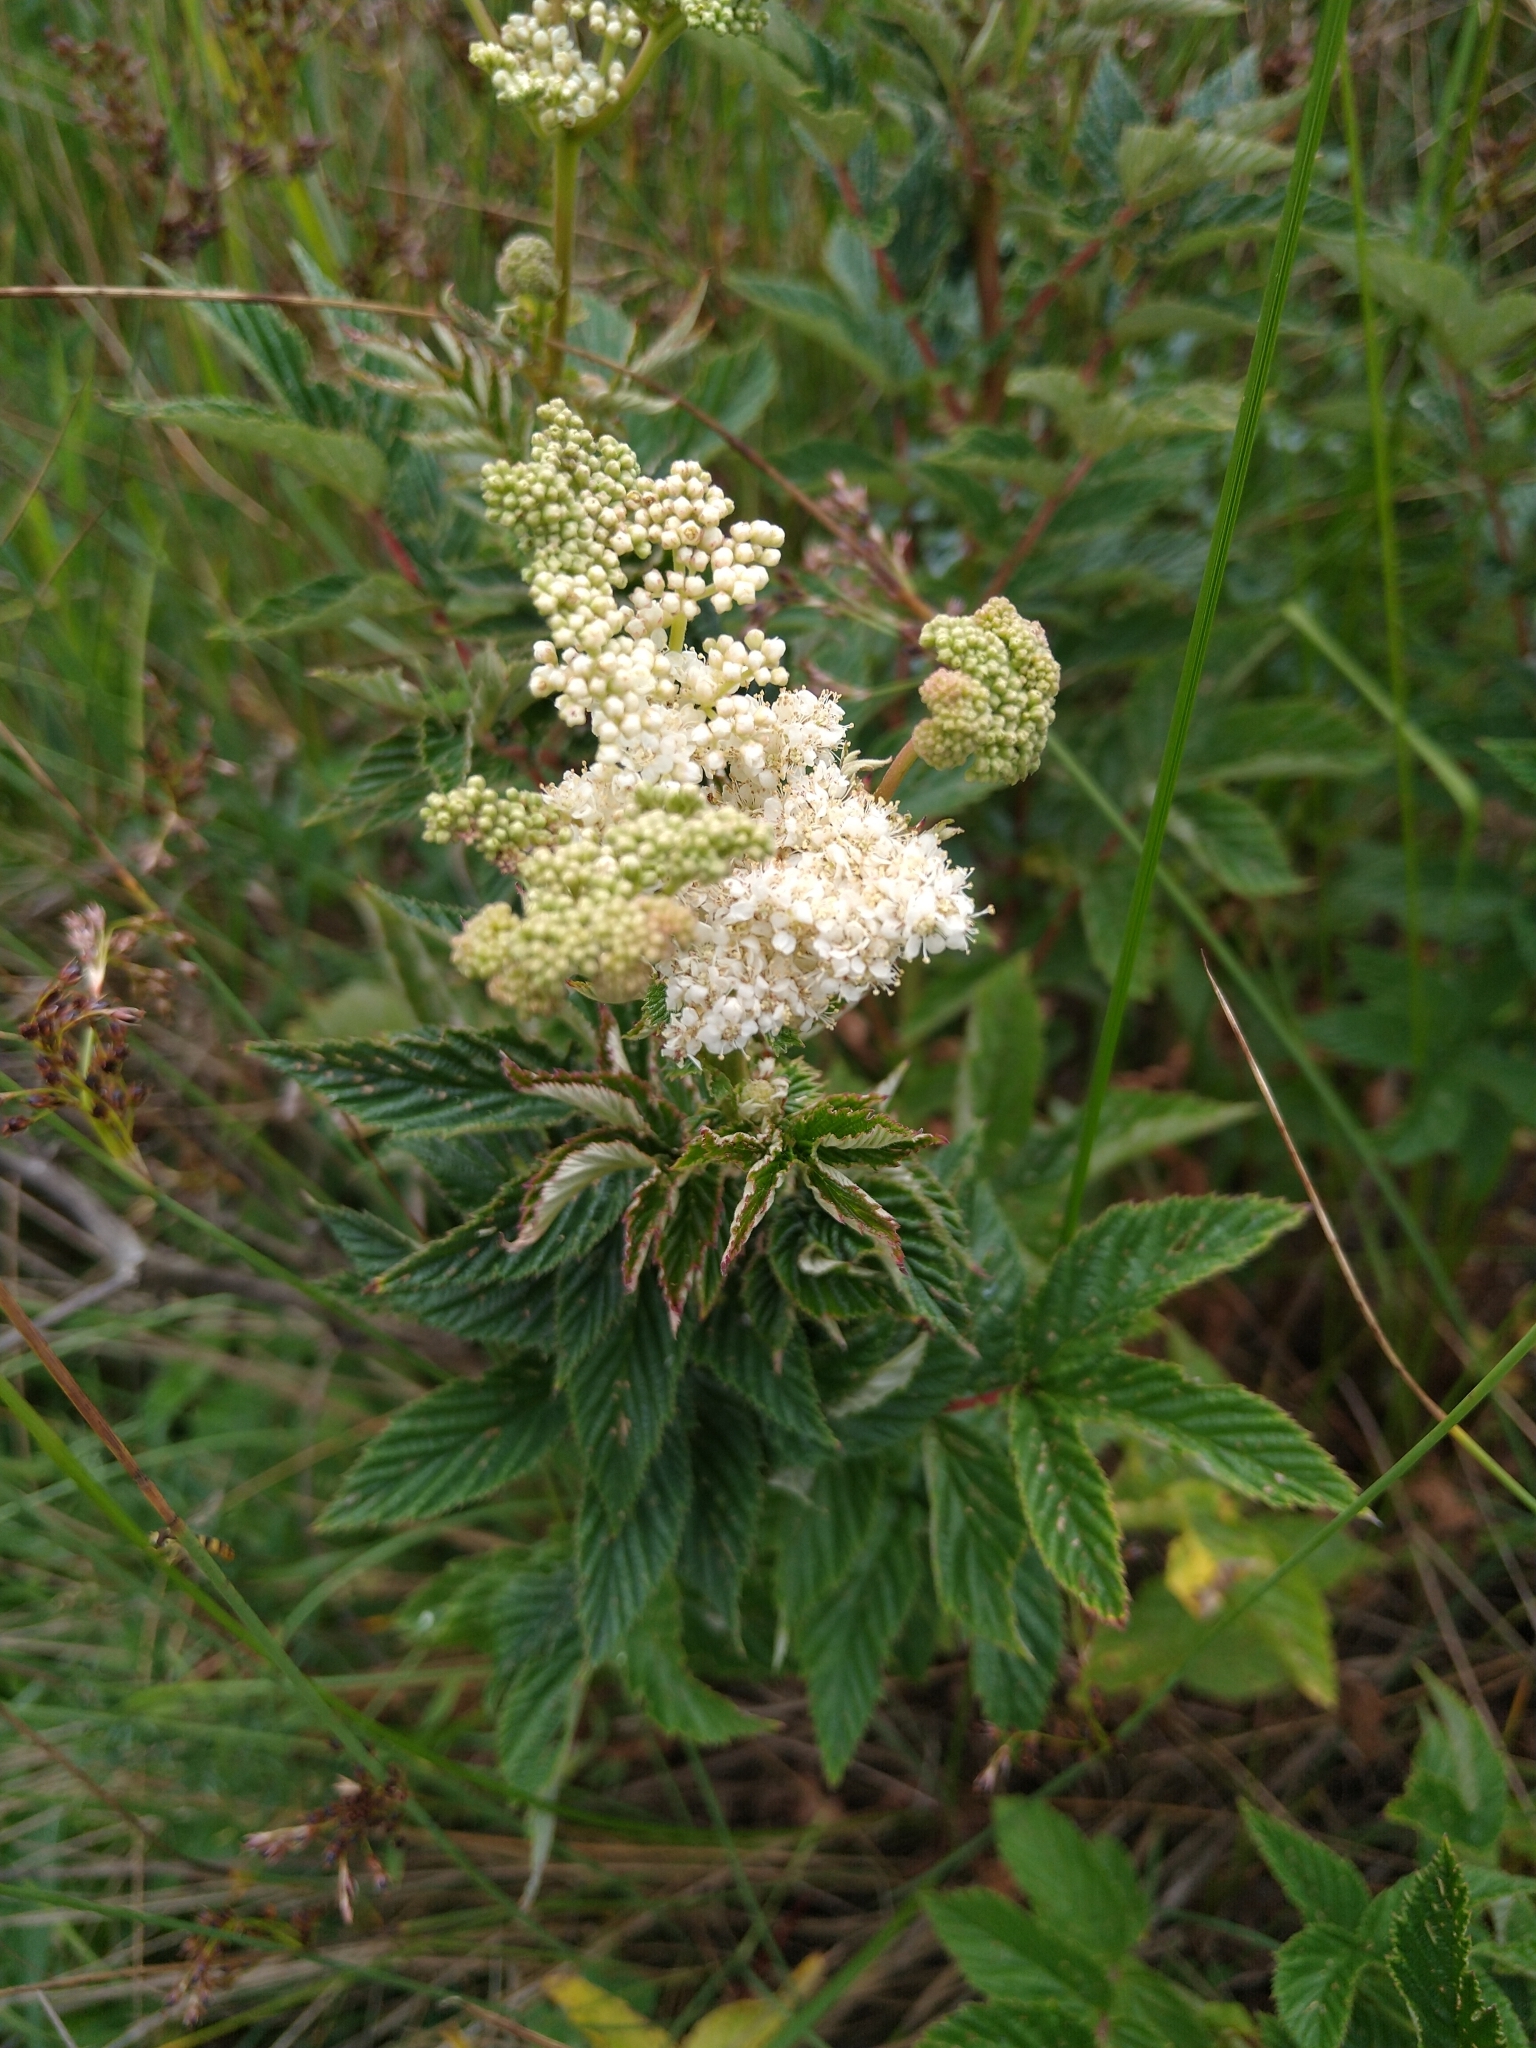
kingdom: Plantae
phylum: Tracheophyta
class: Magnoliopsida
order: Rosales
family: Rosaceae
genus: Filipendula
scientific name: Filipendula ulmaria
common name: Meadowsweet
